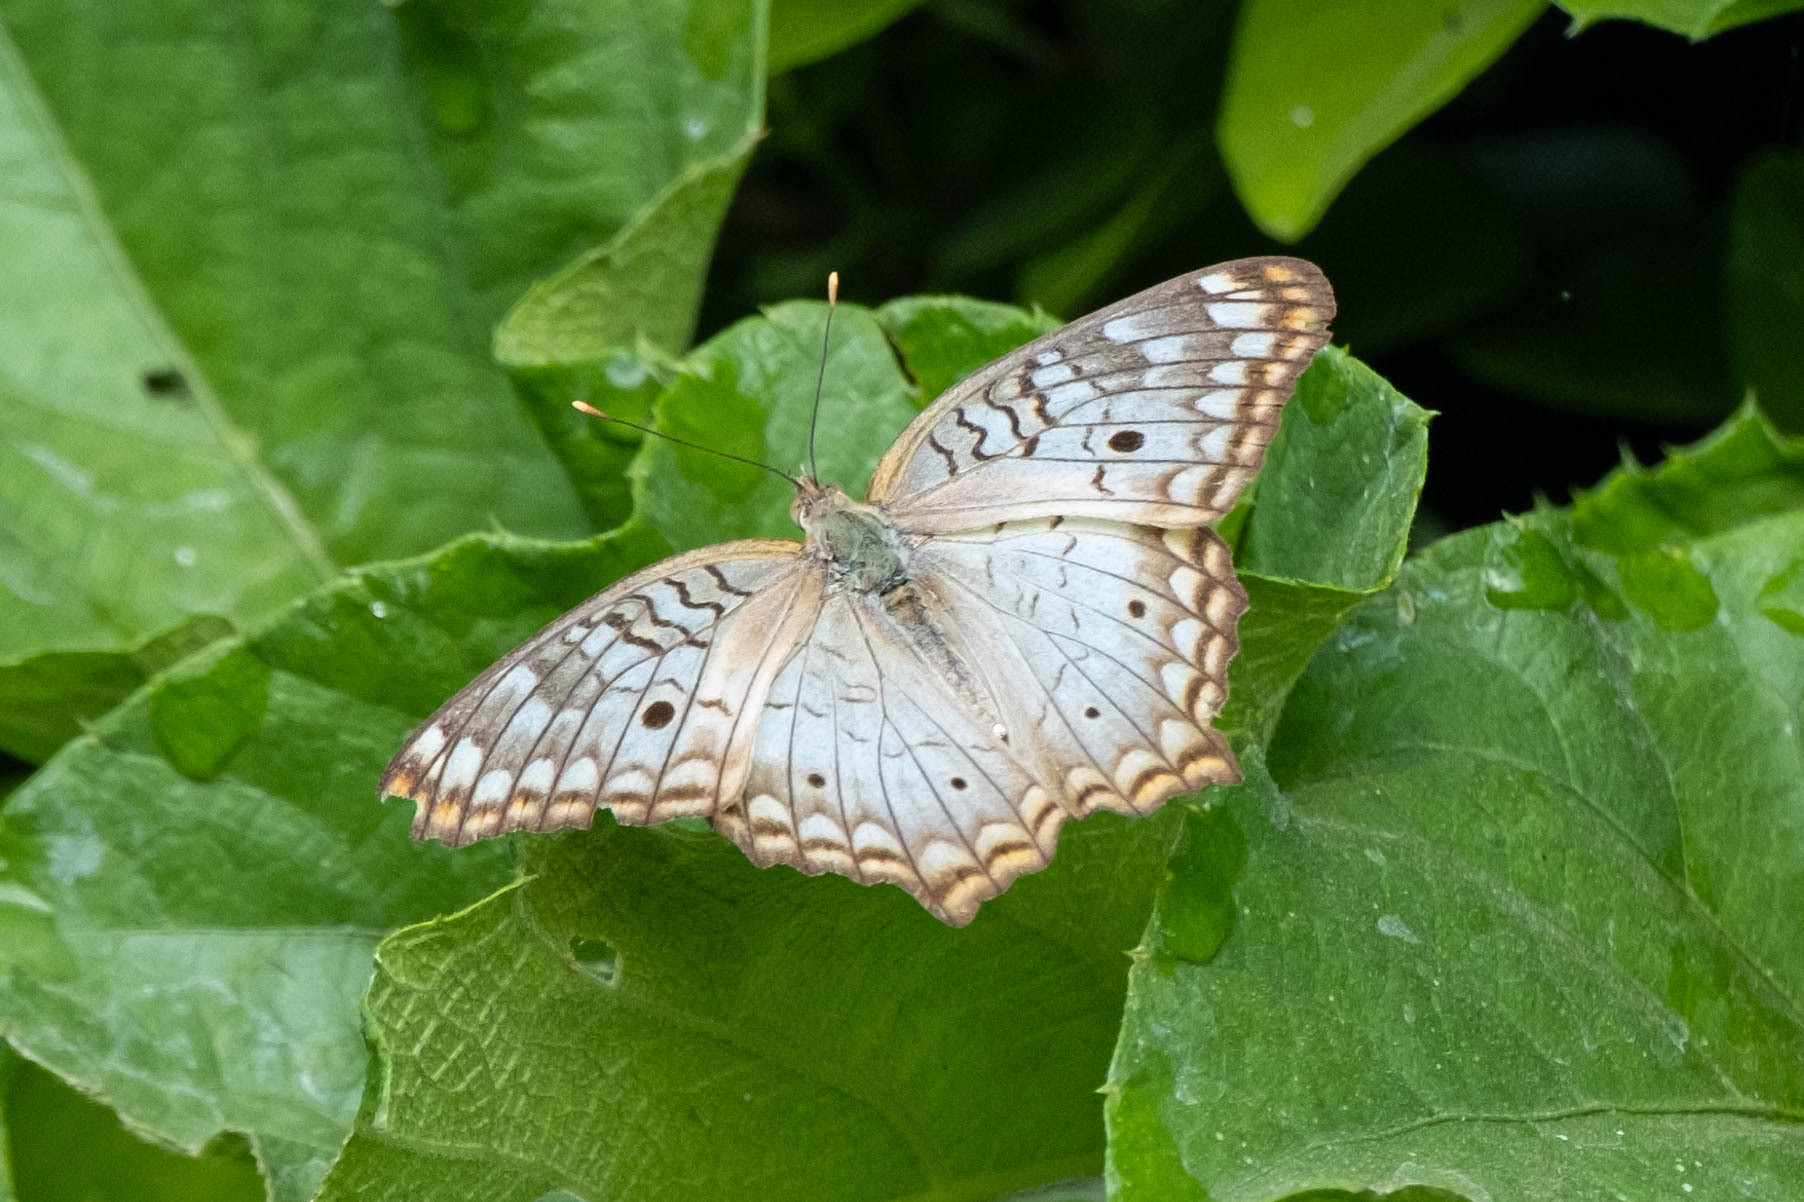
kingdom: Animalia
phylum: Arthropoda
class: Insecta
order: Lepidoptera
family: Nymphalidae
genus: Anartia
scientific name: Anartia jatrophae
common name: White peacock
